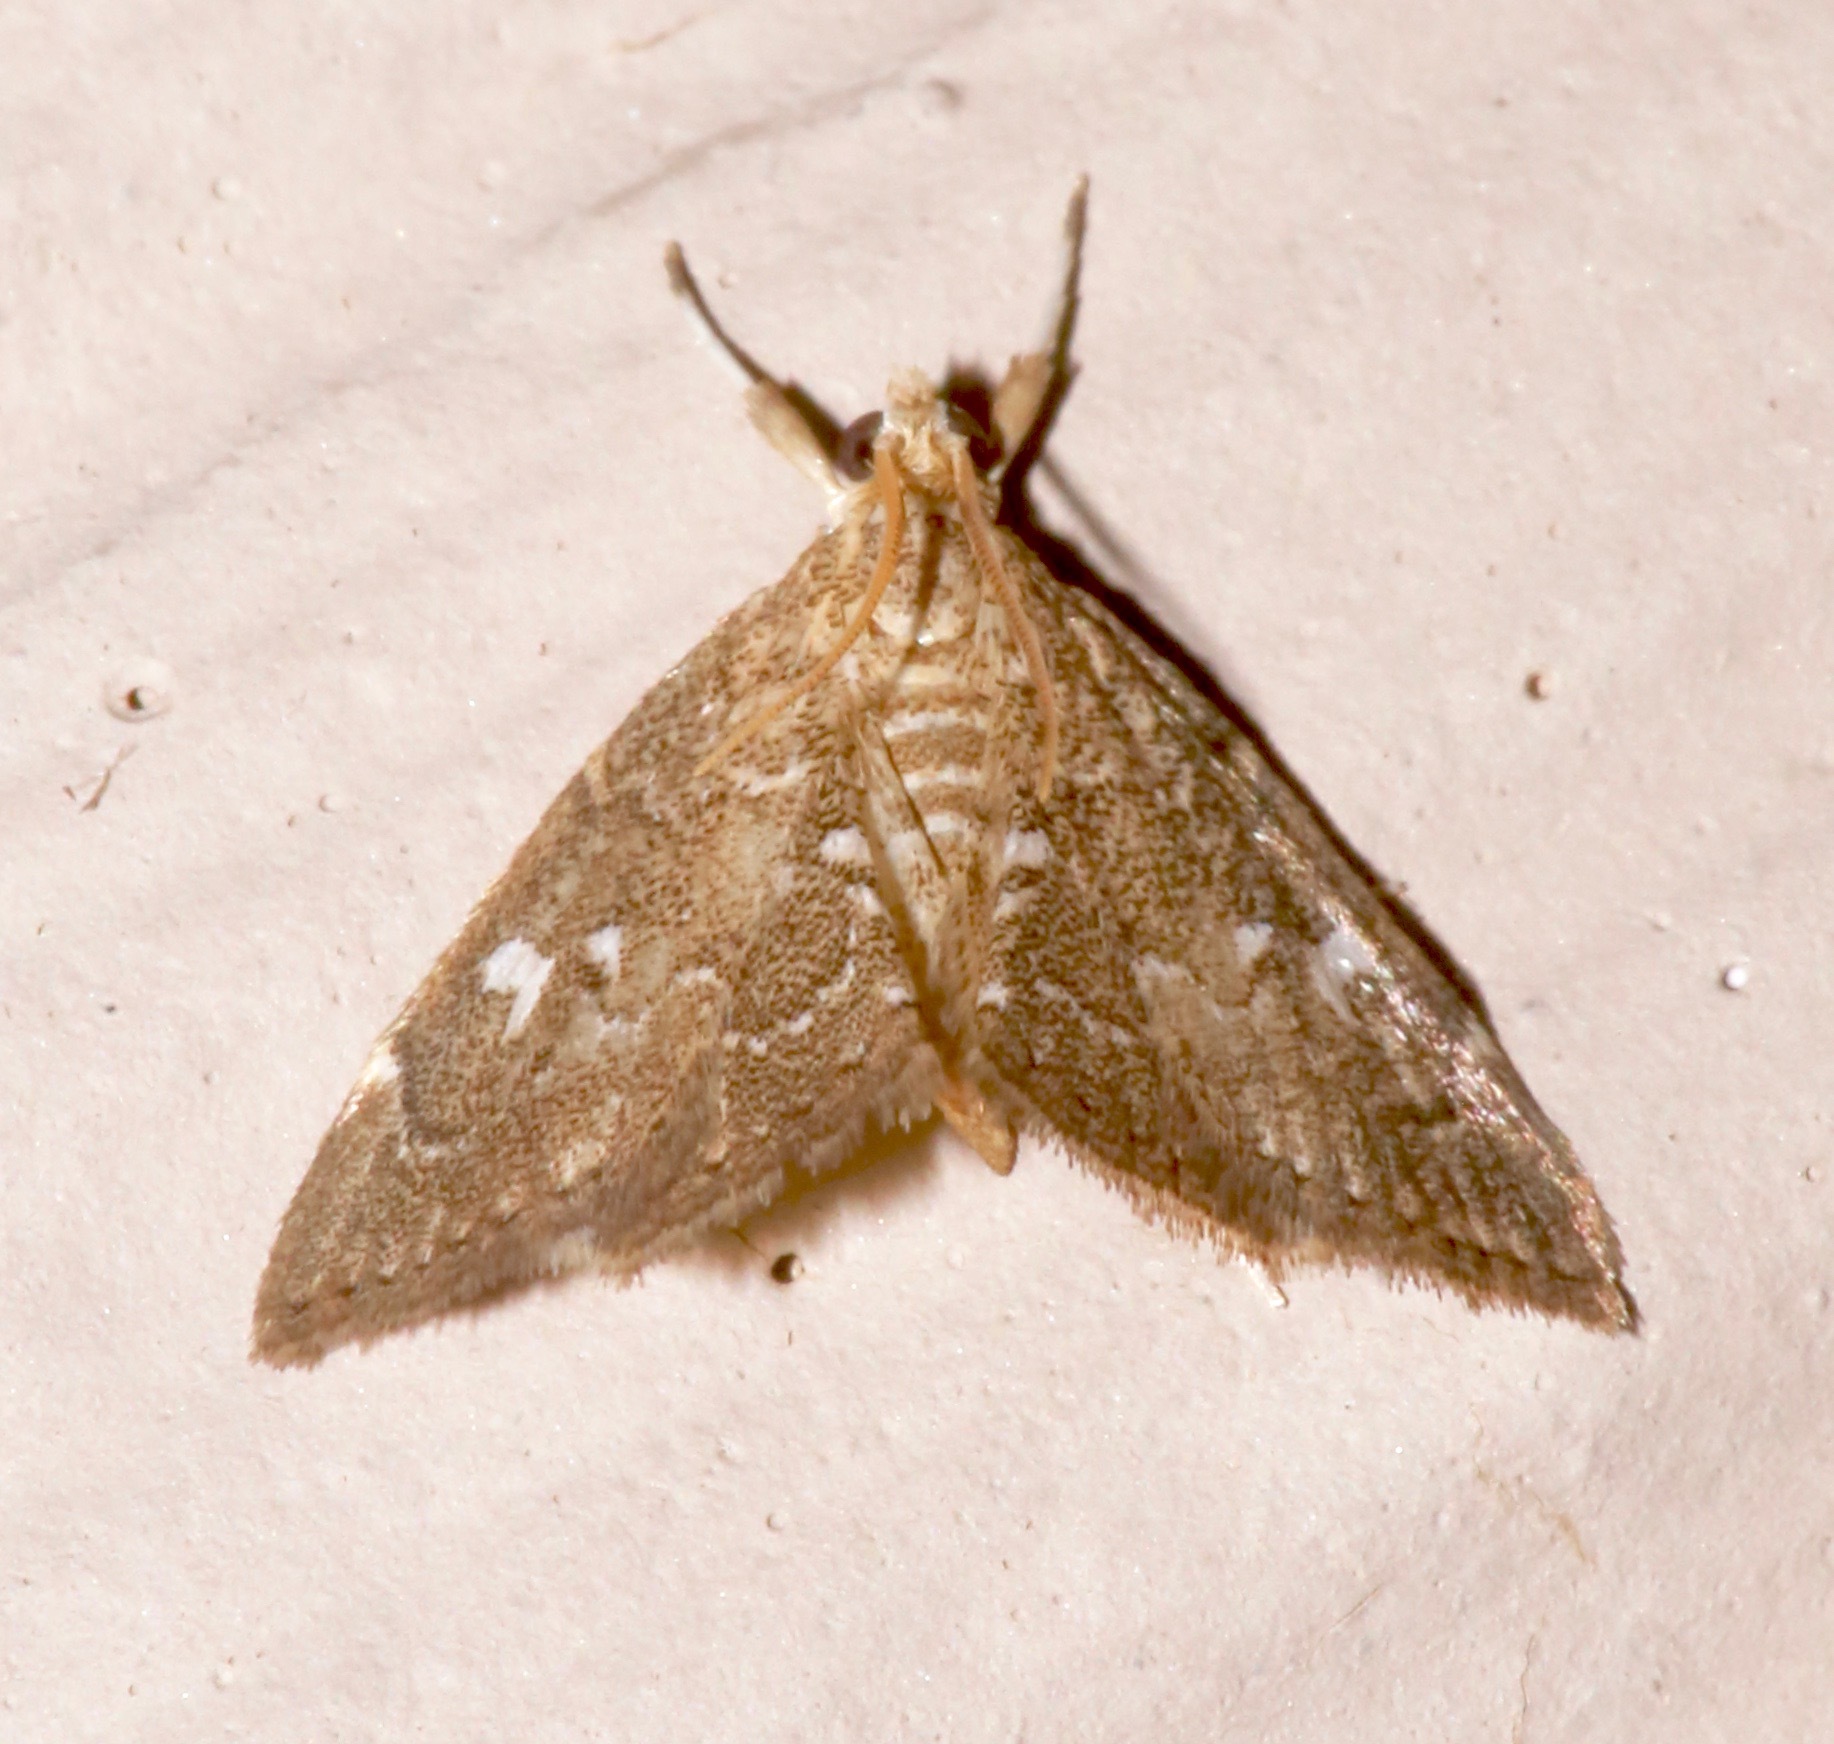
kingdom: Animalia
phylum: Arthropoda
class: Insecta
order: Lepidoptera
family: Crambidae
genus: Nephrogramma
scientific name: Nephrogramma reniculalis
